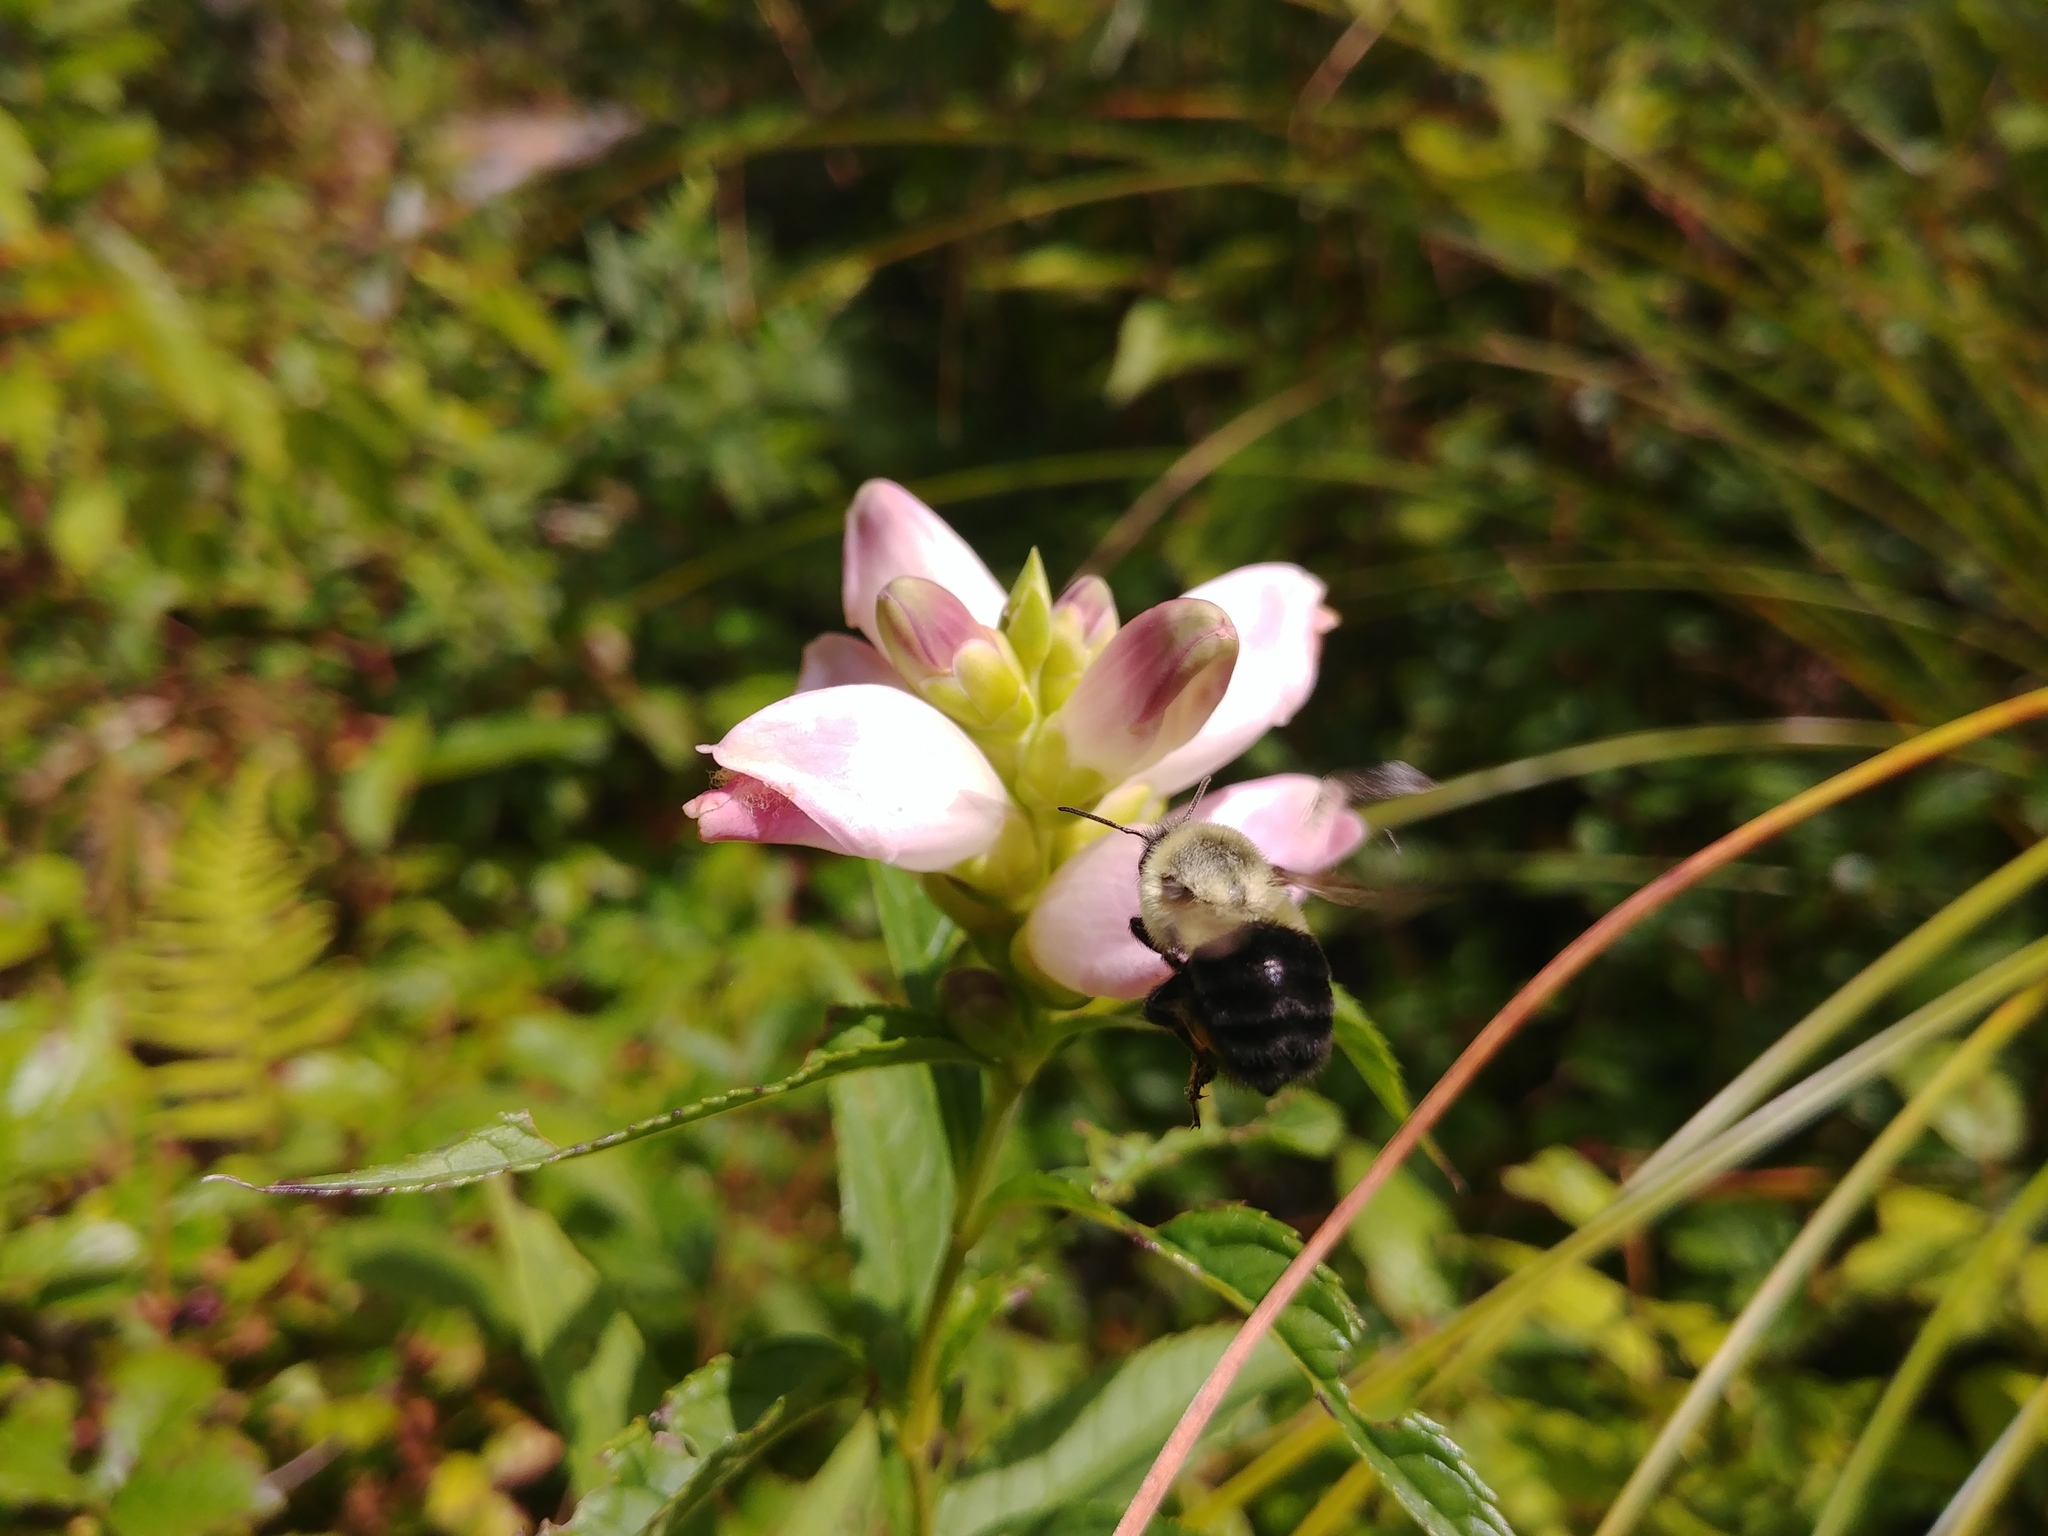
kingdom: Plantae
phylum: Tracheophyta
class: Magnoliopsida
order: Lamiales
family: Plantaginaceae
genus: Chelone
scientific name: Chelone glabra
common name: Snakehead
